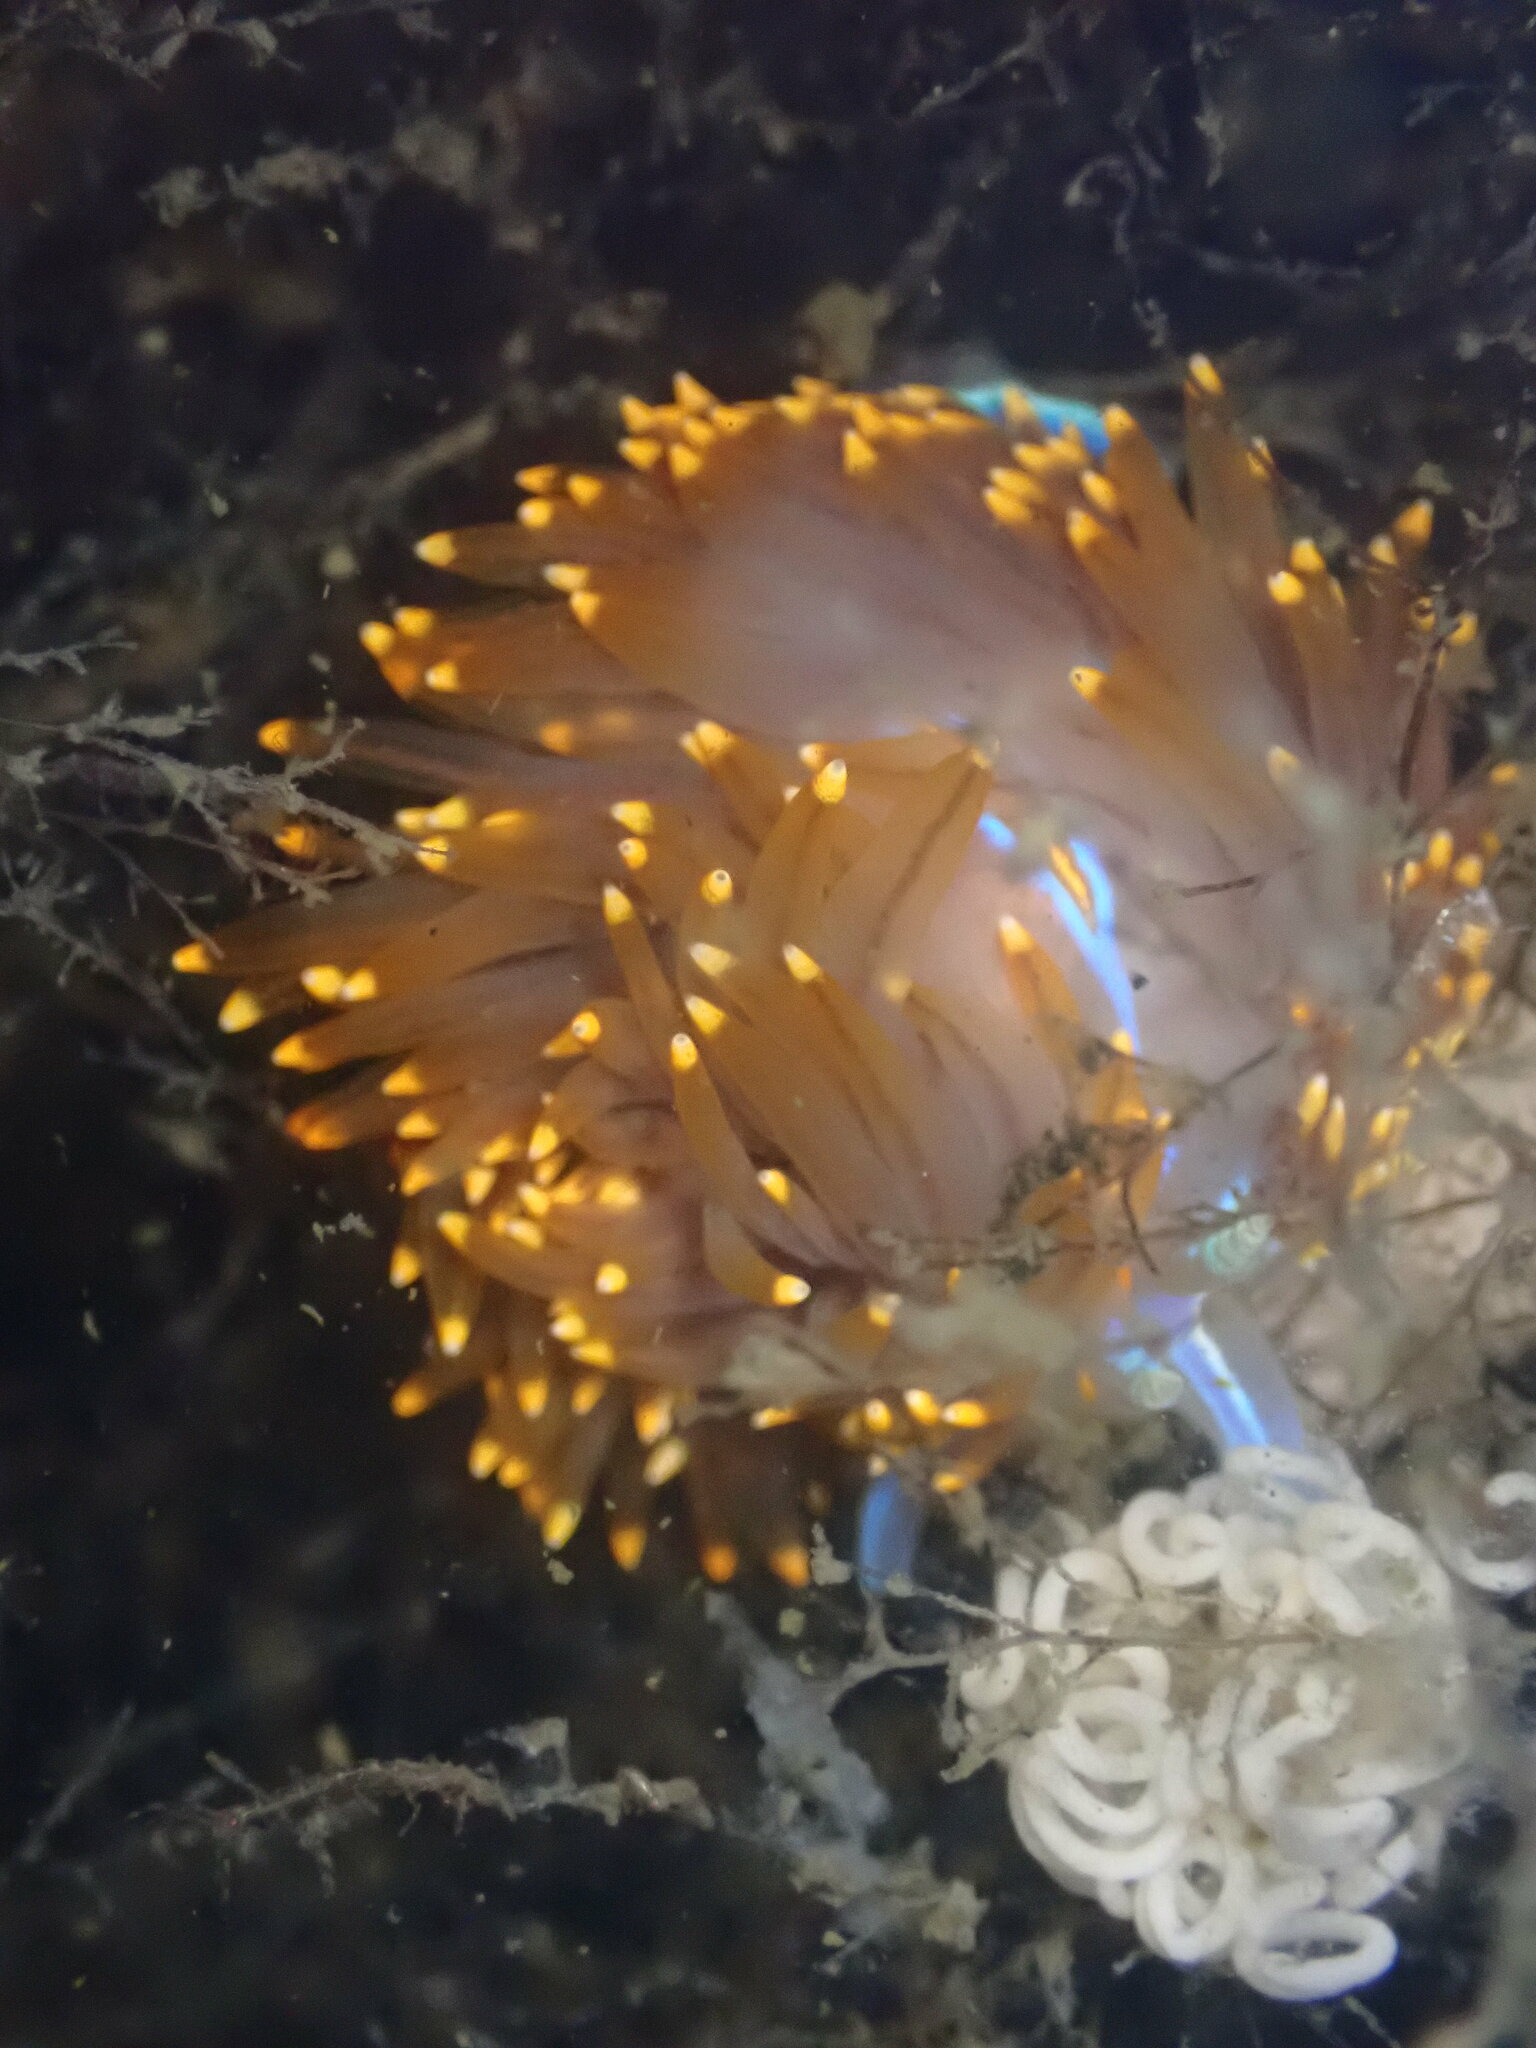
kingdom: Animalia
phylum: Mollusca
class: Gastropoda
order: Nudibranchia
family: Myrrhinidae
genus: Hermissenda
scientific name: Hermissenda opalescens
